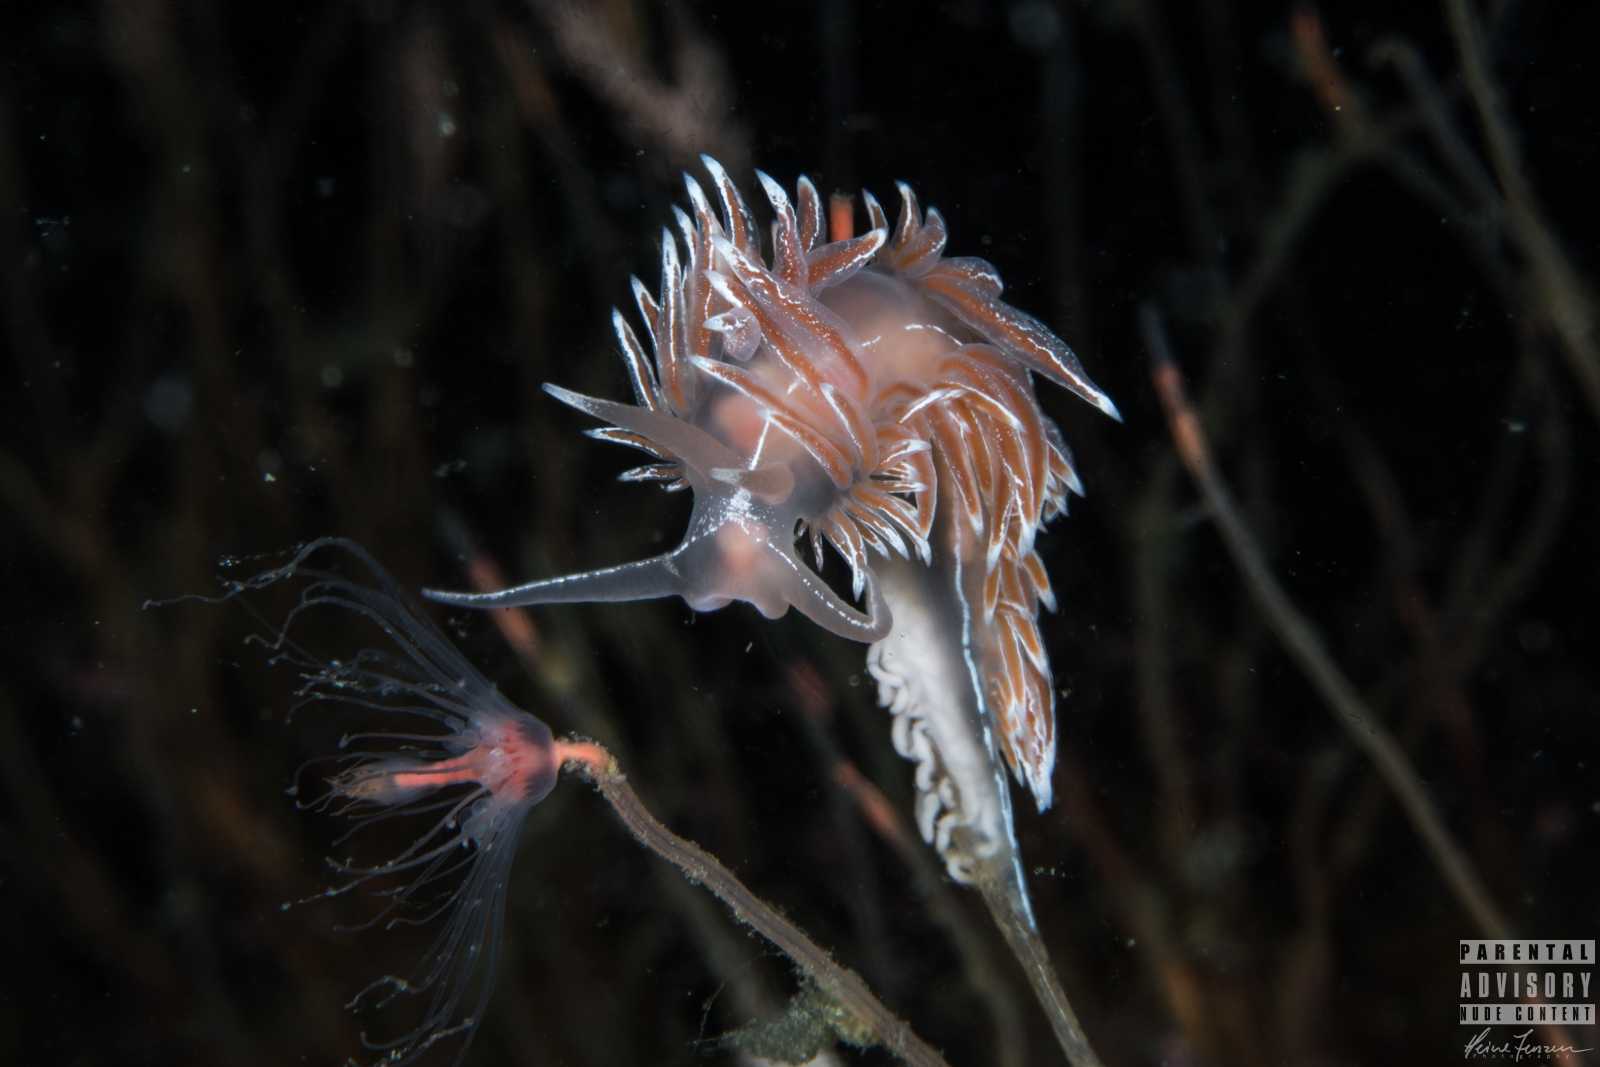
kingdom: Animalia
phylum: Mollusca
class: Gastropoda
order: Nudibranchia
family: Coryphellidae
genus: Coryphella
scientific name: Coryphella lineata
